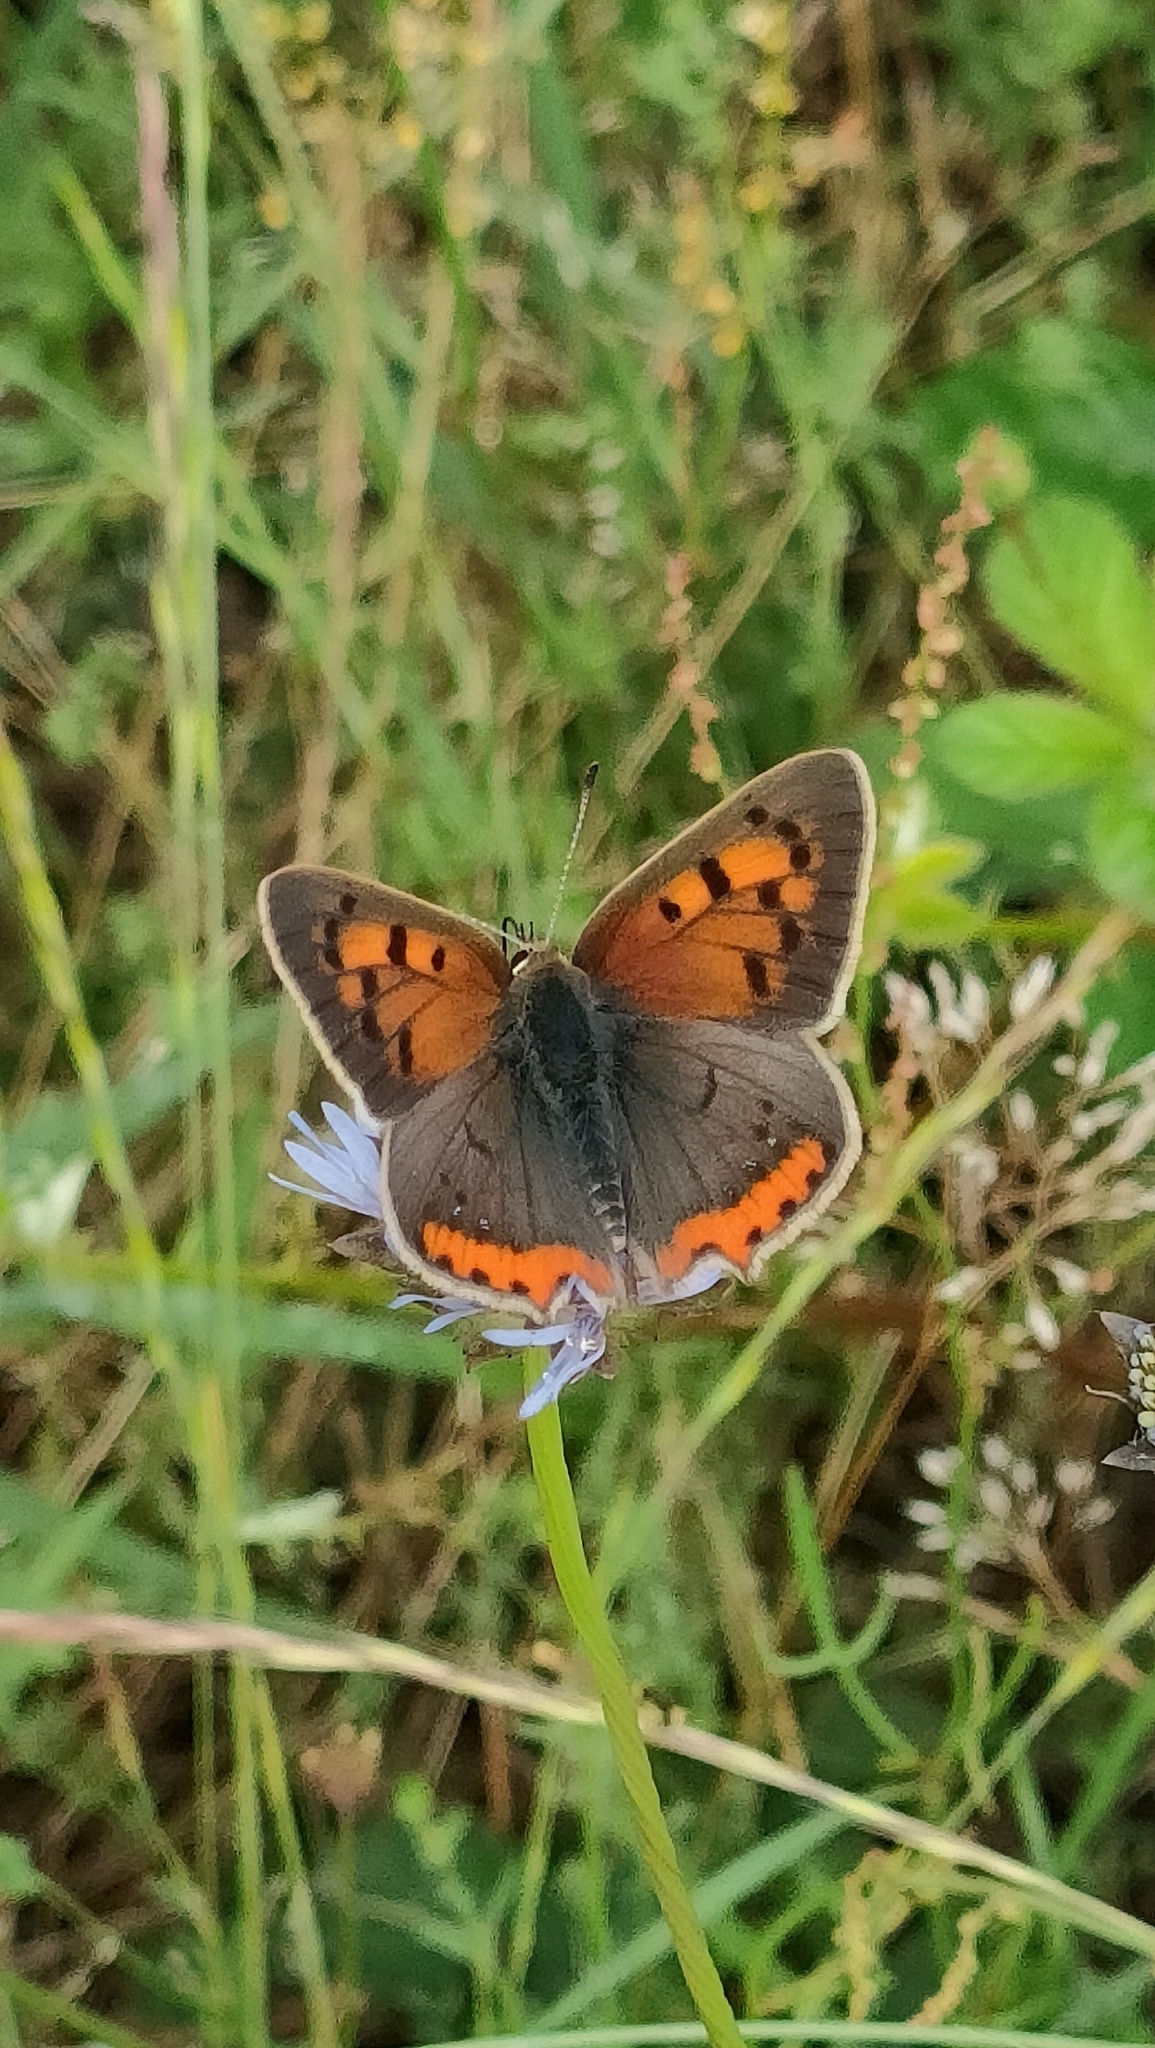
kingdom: Animalia
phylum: Arthropoda
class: Insecta
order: Lepidoptera
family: Lycaenidae
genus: Lycaena
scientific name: Lycaena phlaeas
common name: Small copper
